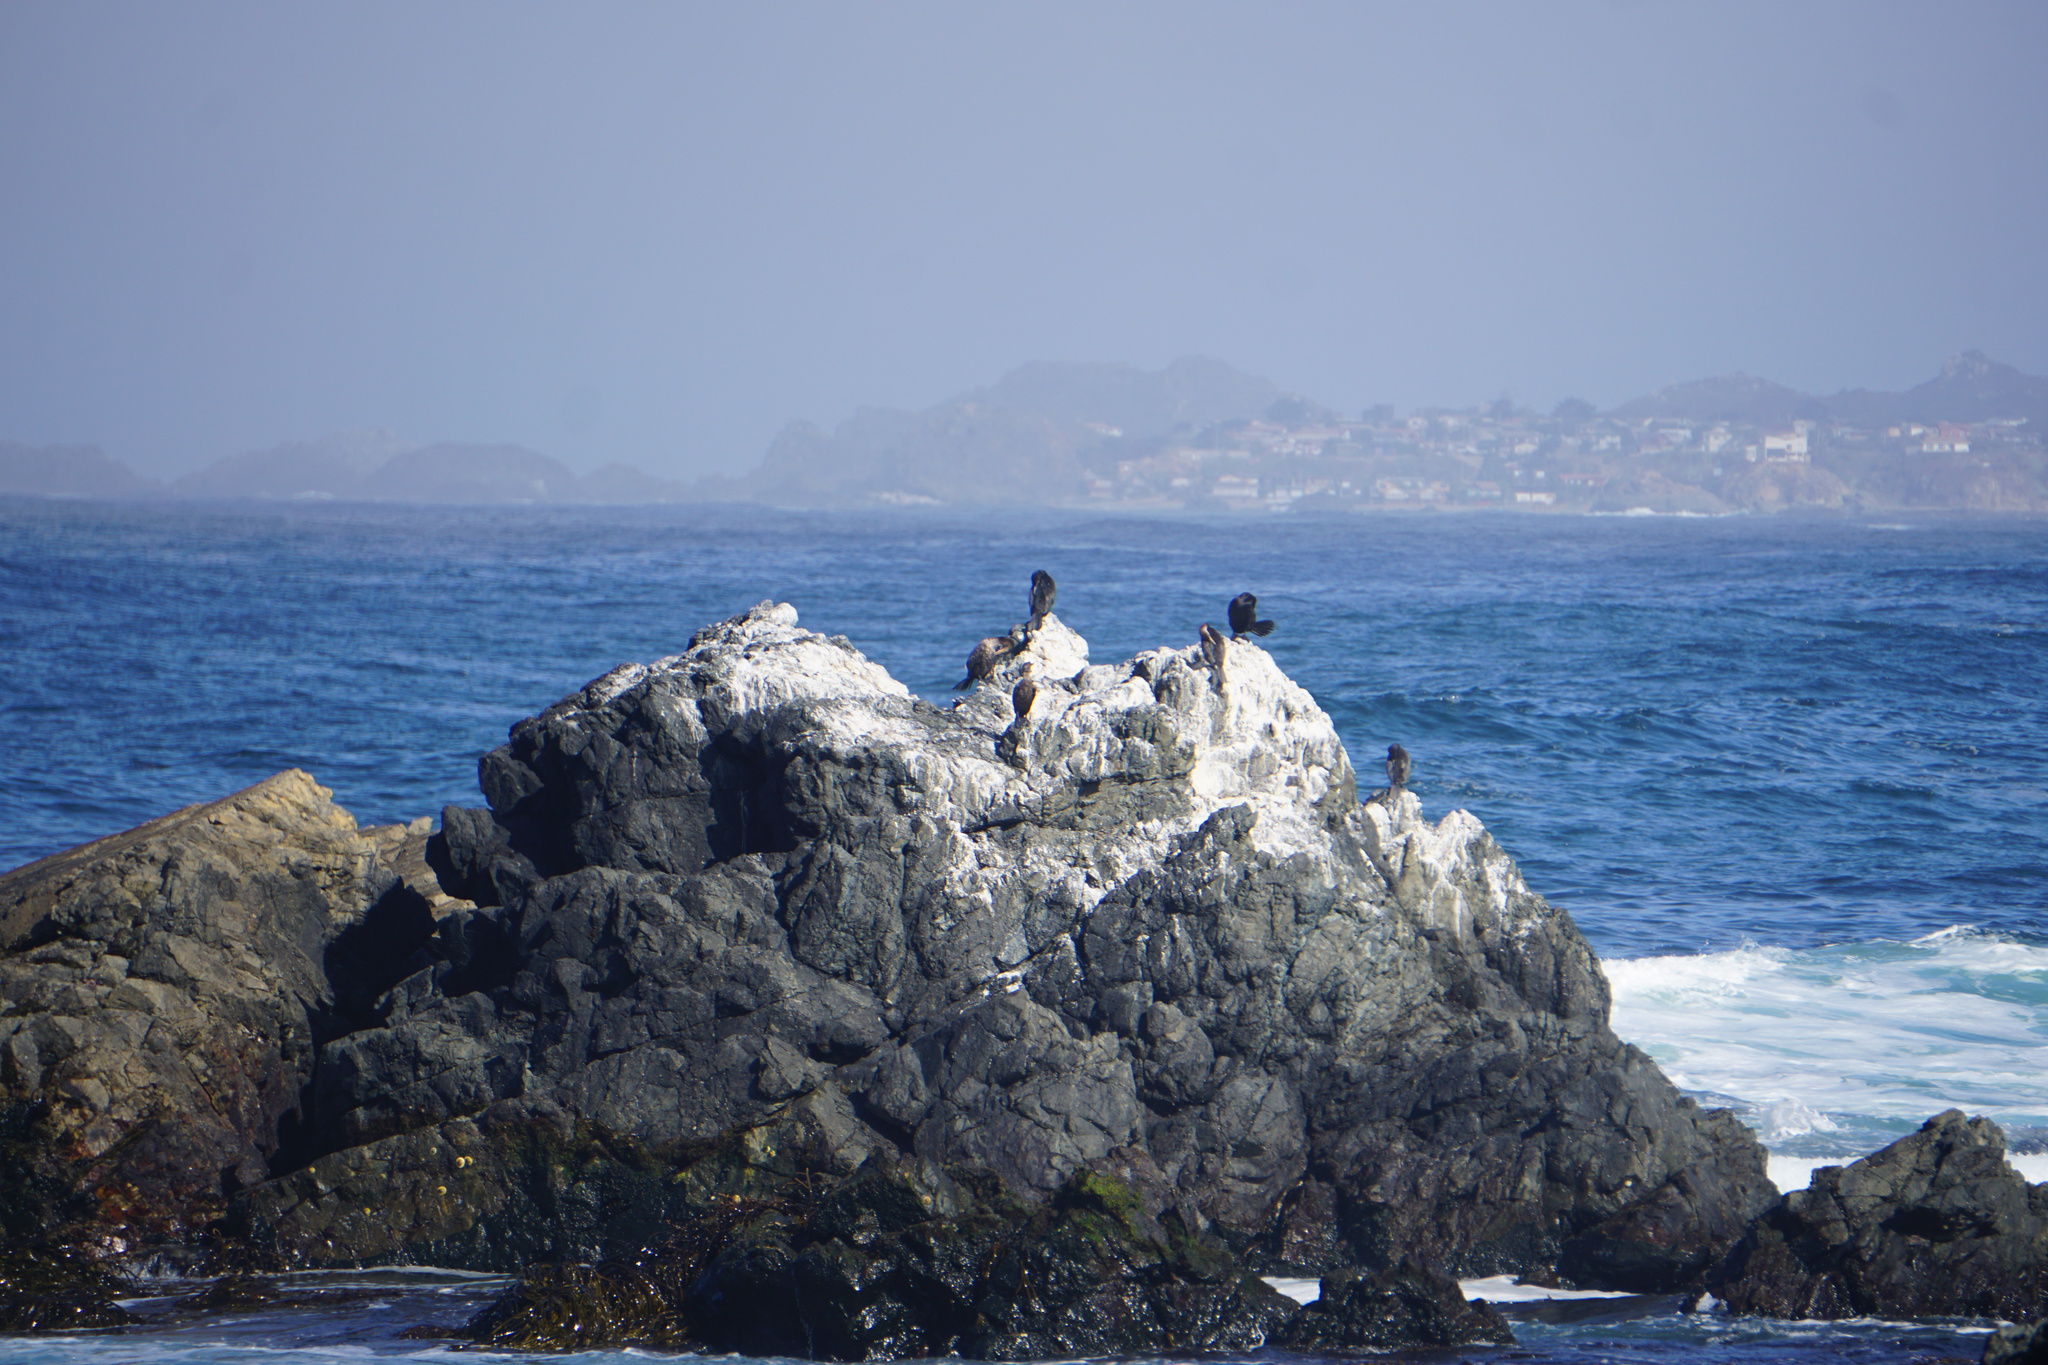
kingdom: Animalia
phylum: Chordata
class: Aves
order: Suliformes
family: Phalacrocoracidae
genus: Phalacrocorax
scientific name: Phalacrocorax brasilianus
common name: Neotropic cormorant
